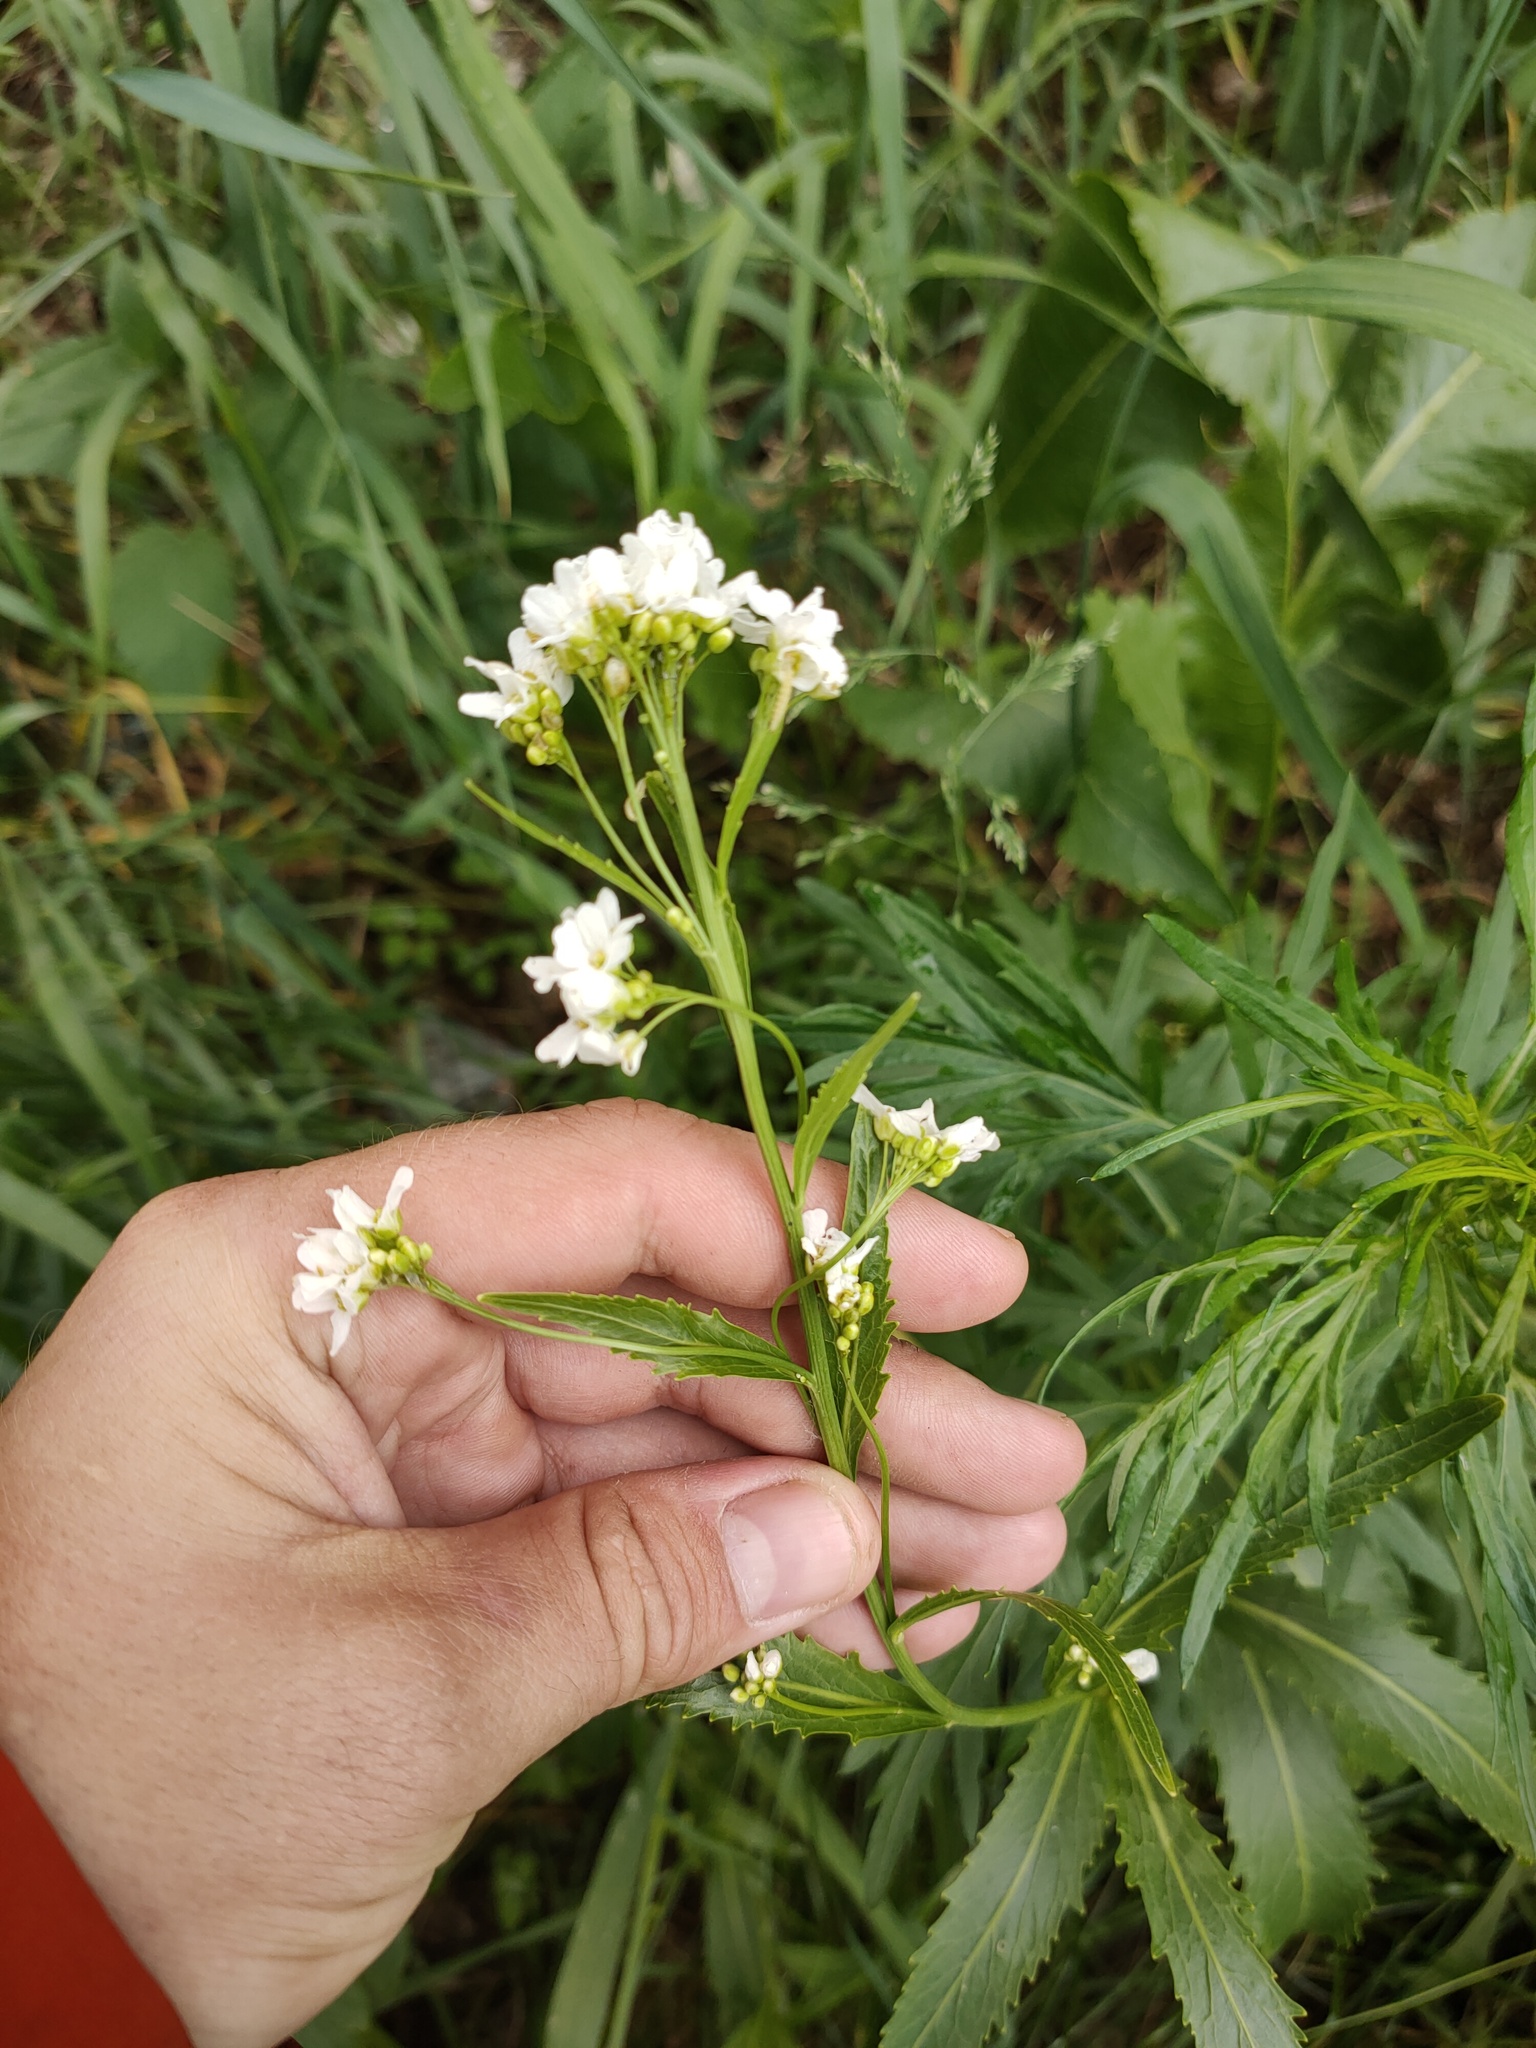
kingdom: Plantae
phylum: Tracheophyta
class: Magnoliopsida
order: Brassicales
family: Brassicaceae
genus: Armoracia
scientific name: Armoracia rusticana
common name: Horseradish
